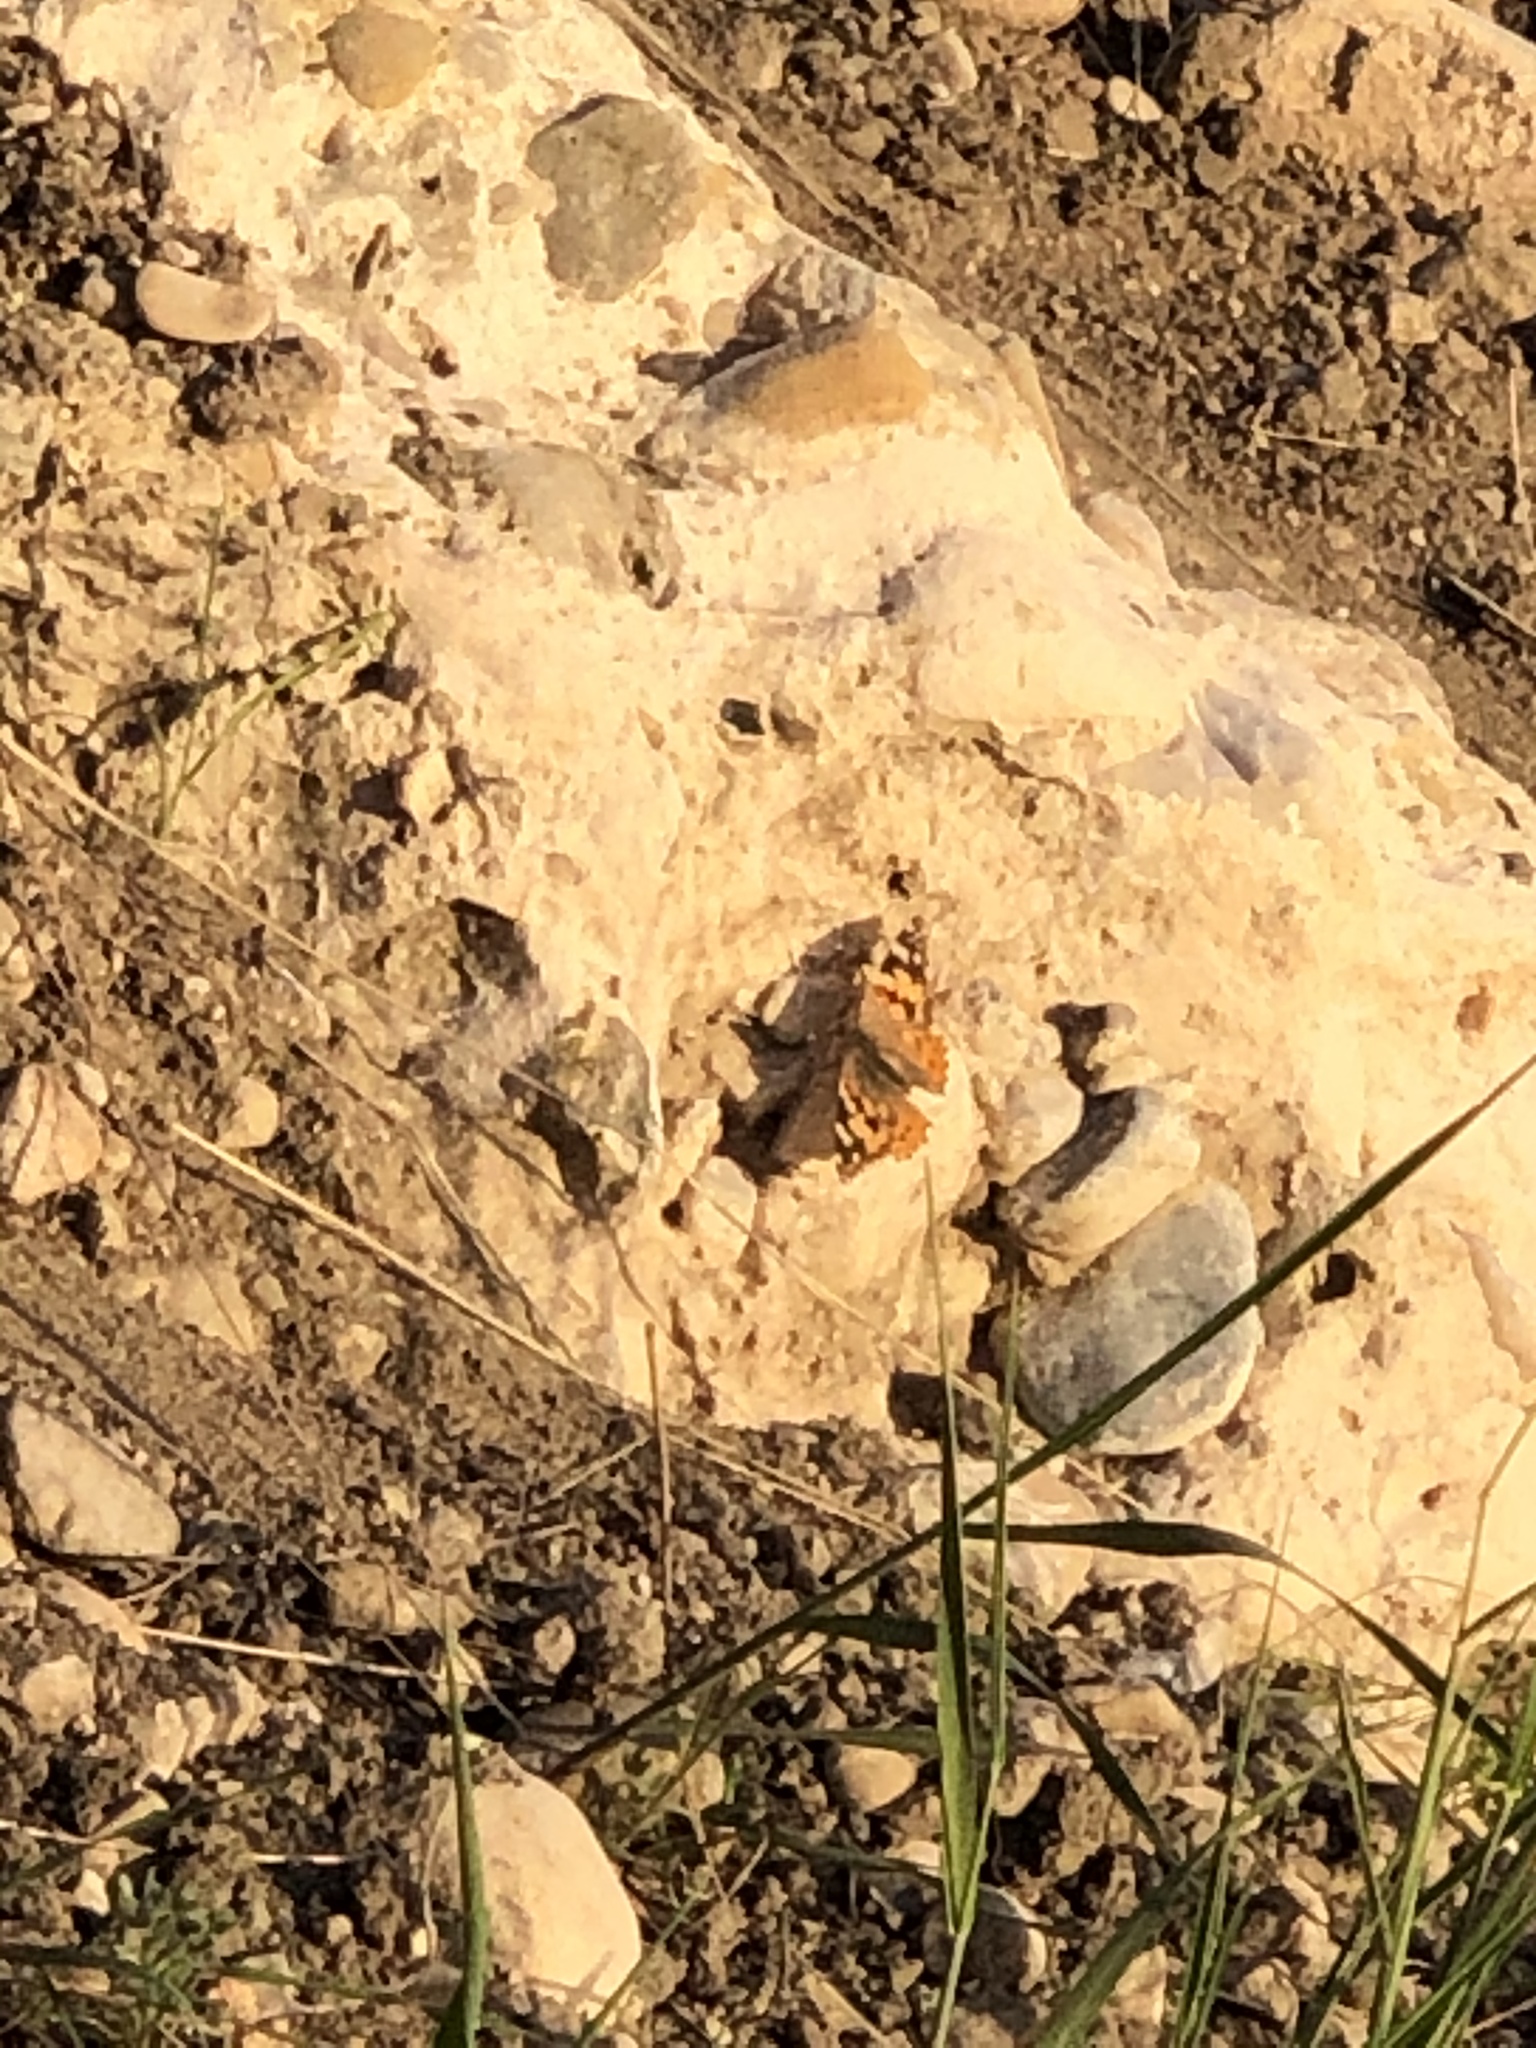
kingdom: Animalia
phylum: Arthropoda
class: Insecta
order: Lepidoptera
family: Nymphalidae
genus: Vanessa
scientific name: Vanessa cardui
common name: Painted lady
